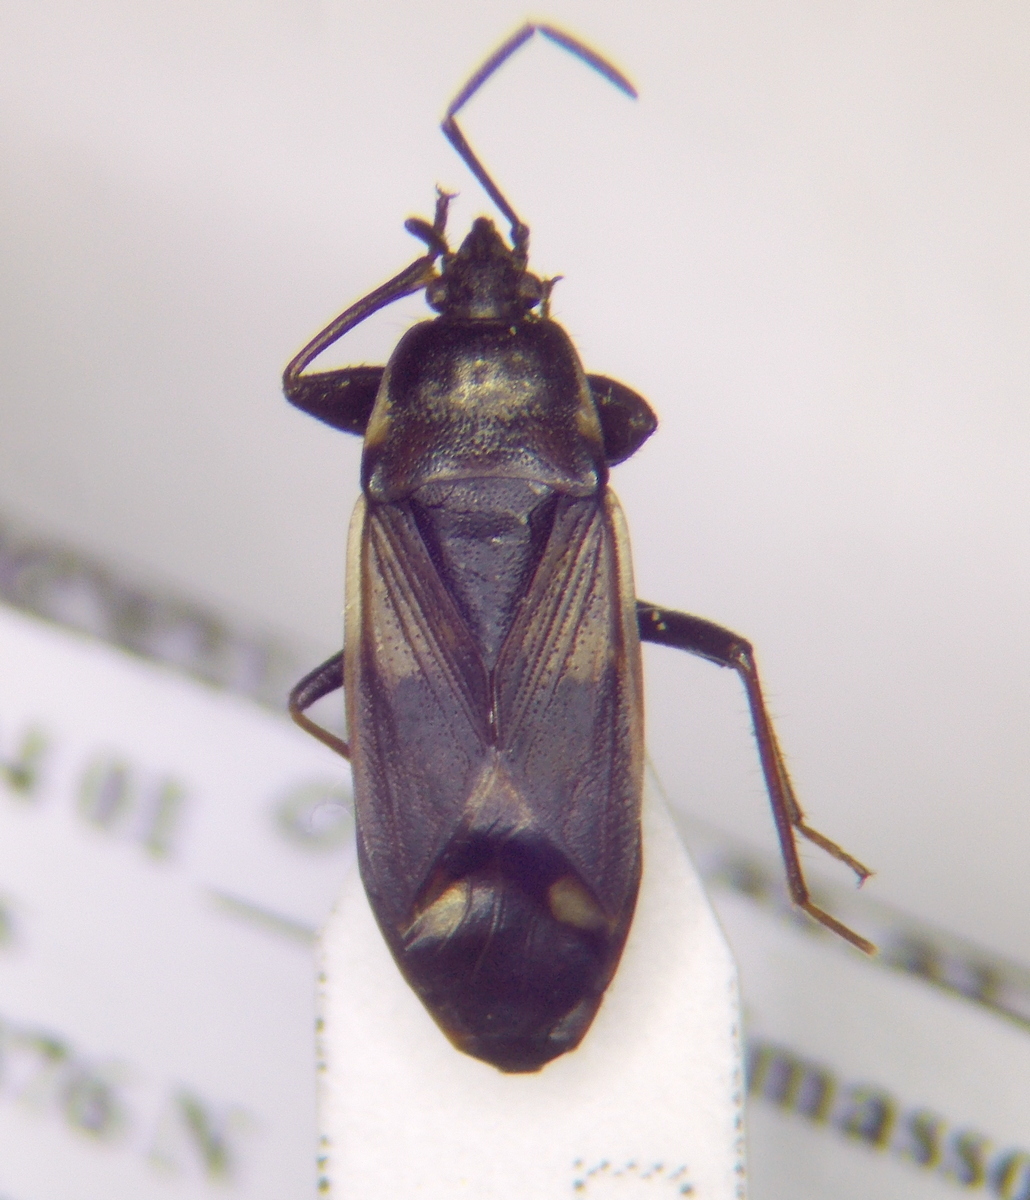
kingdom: Animalia
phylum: Arthropoda
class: Insecta
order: Hemiptera
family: Rhyparochromidae
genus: Eremocoris
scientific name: Eremocoris fenestratus
